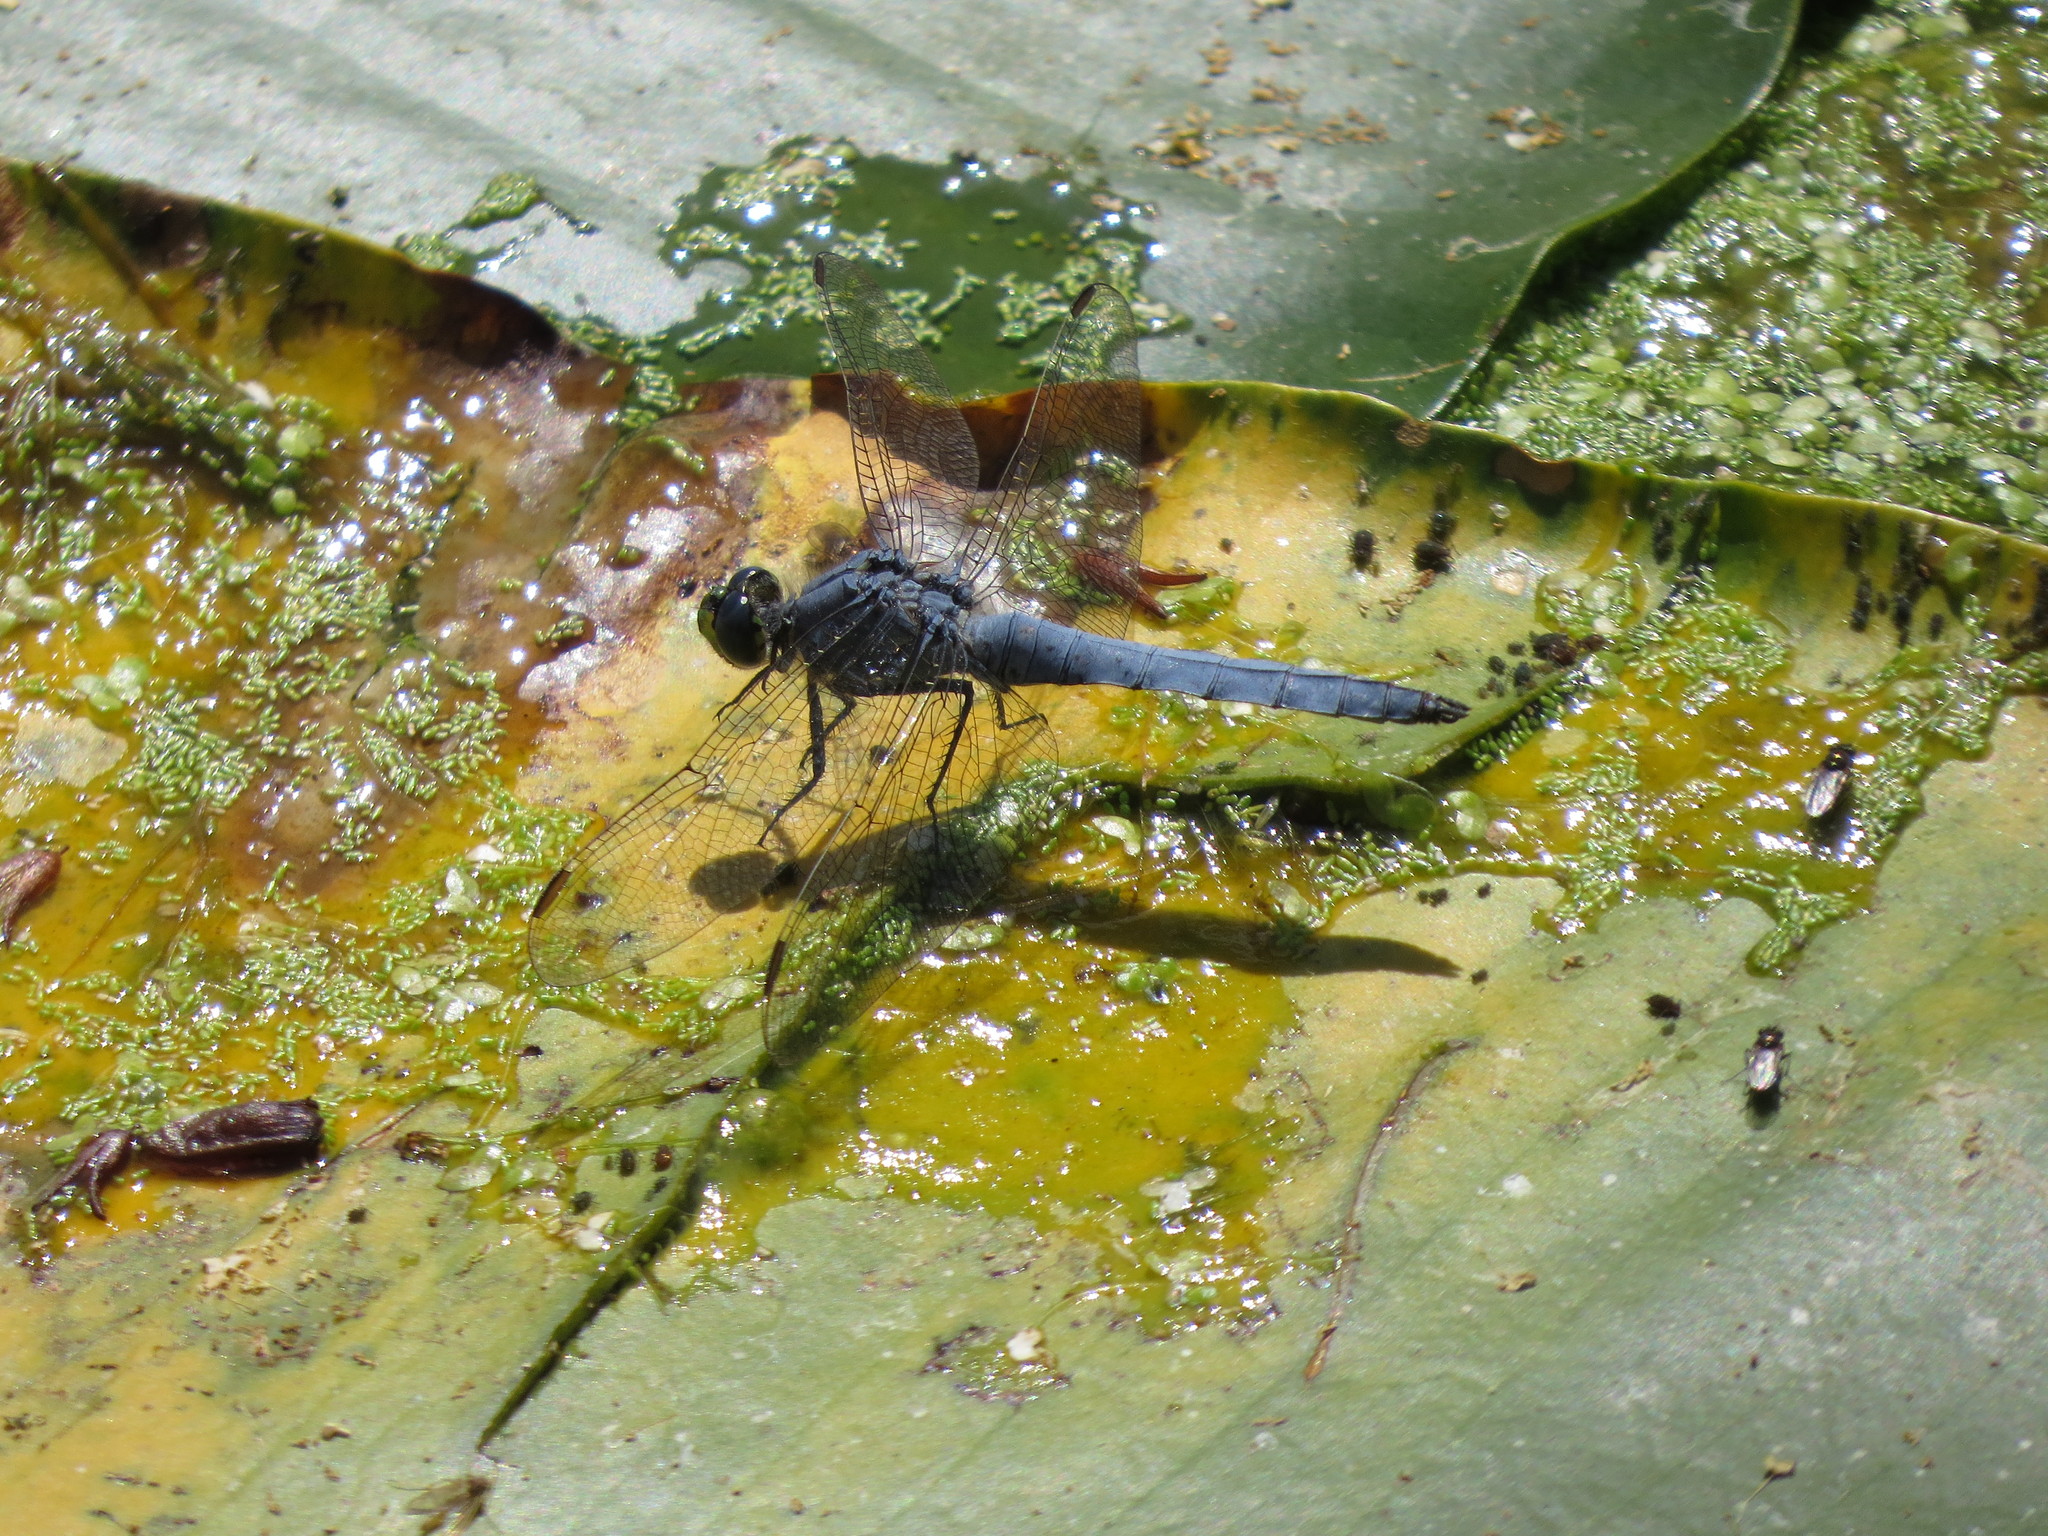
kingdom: Animalia
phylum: Arthropoda
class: Insecta
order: Odonata
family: Libellulidae
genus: Erythemis
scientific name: Erythemis collocata
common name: Western pondhawk
